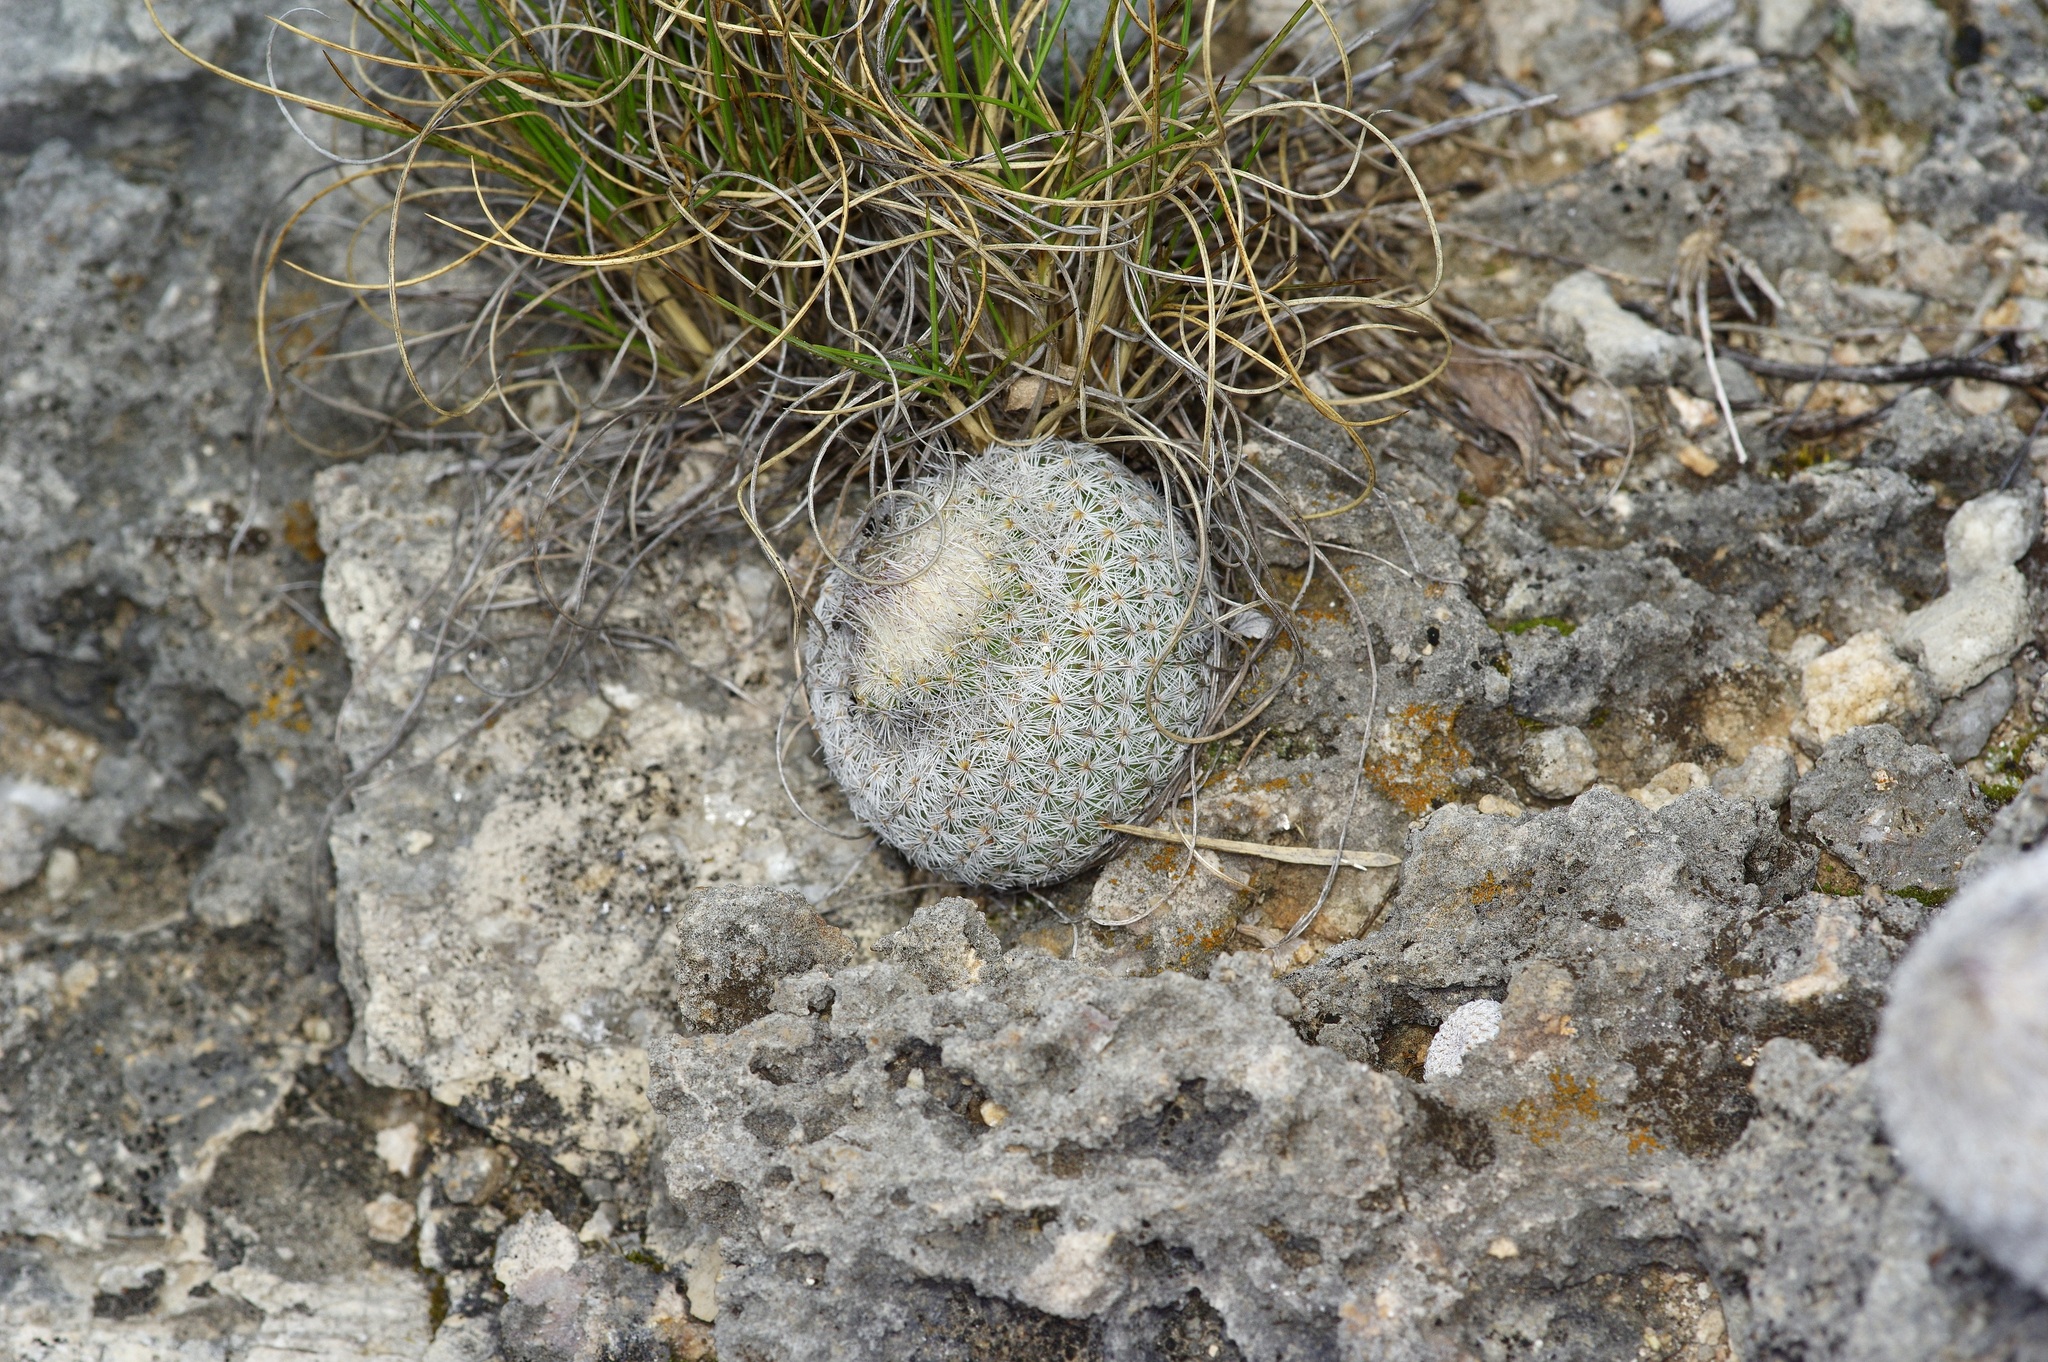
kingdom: Plantae
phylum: Tracheophyta
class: Magnoliopsida
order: Caryophyllales
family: Cactaceae
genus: Epithelantha
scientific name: Epithelantha micromeris
